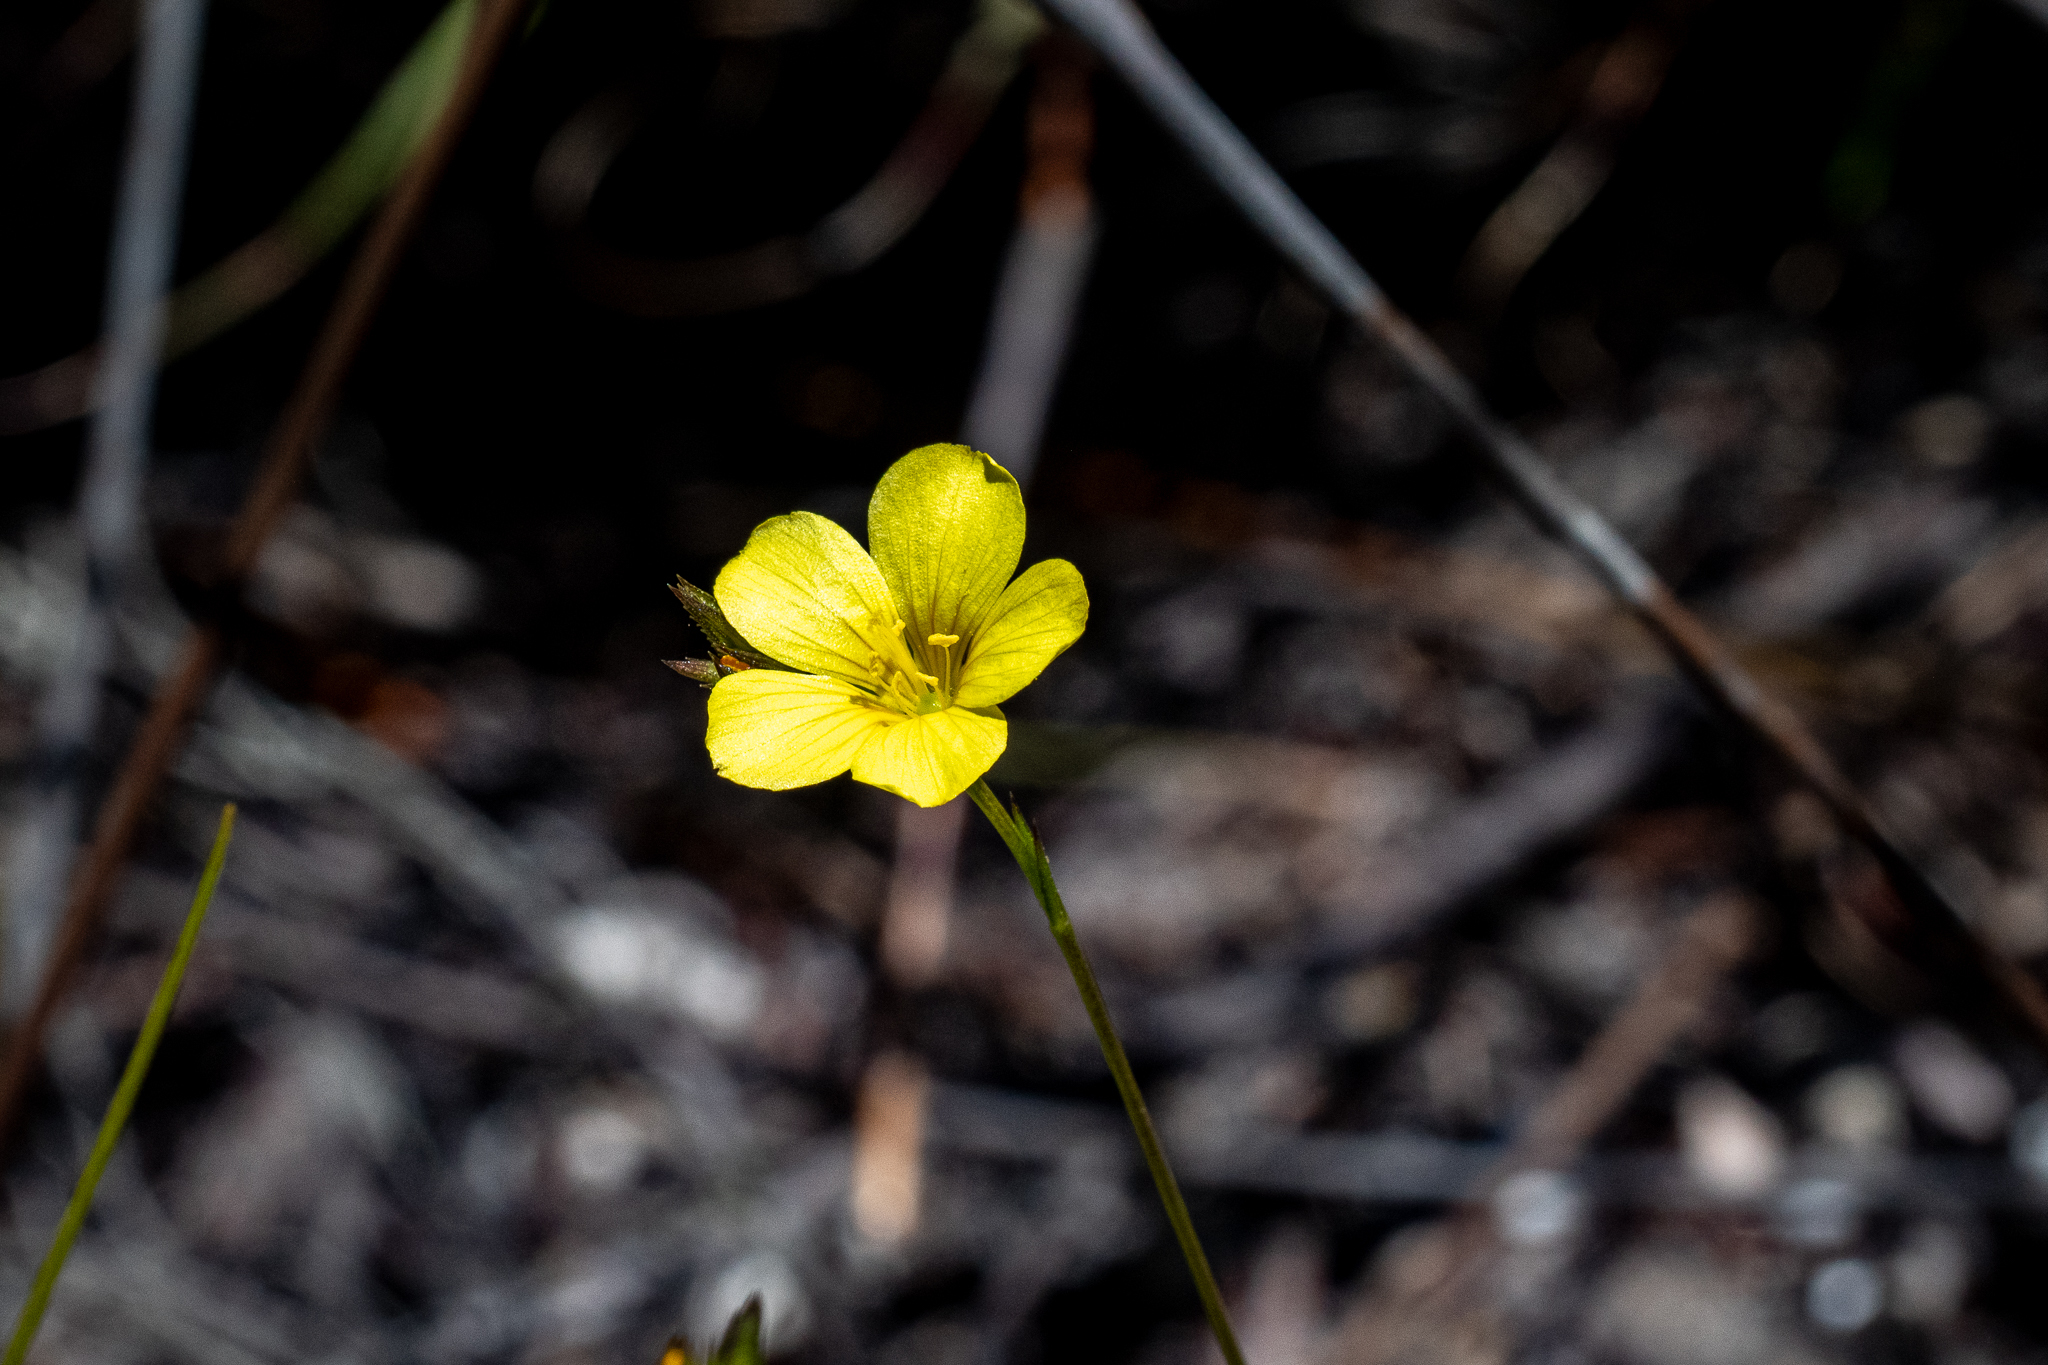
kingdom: Plantae
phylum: Tracheophyta
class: Magnoliopsida
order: Malpighiales
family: Linaceae
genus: Linum
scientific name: Linum africanum
